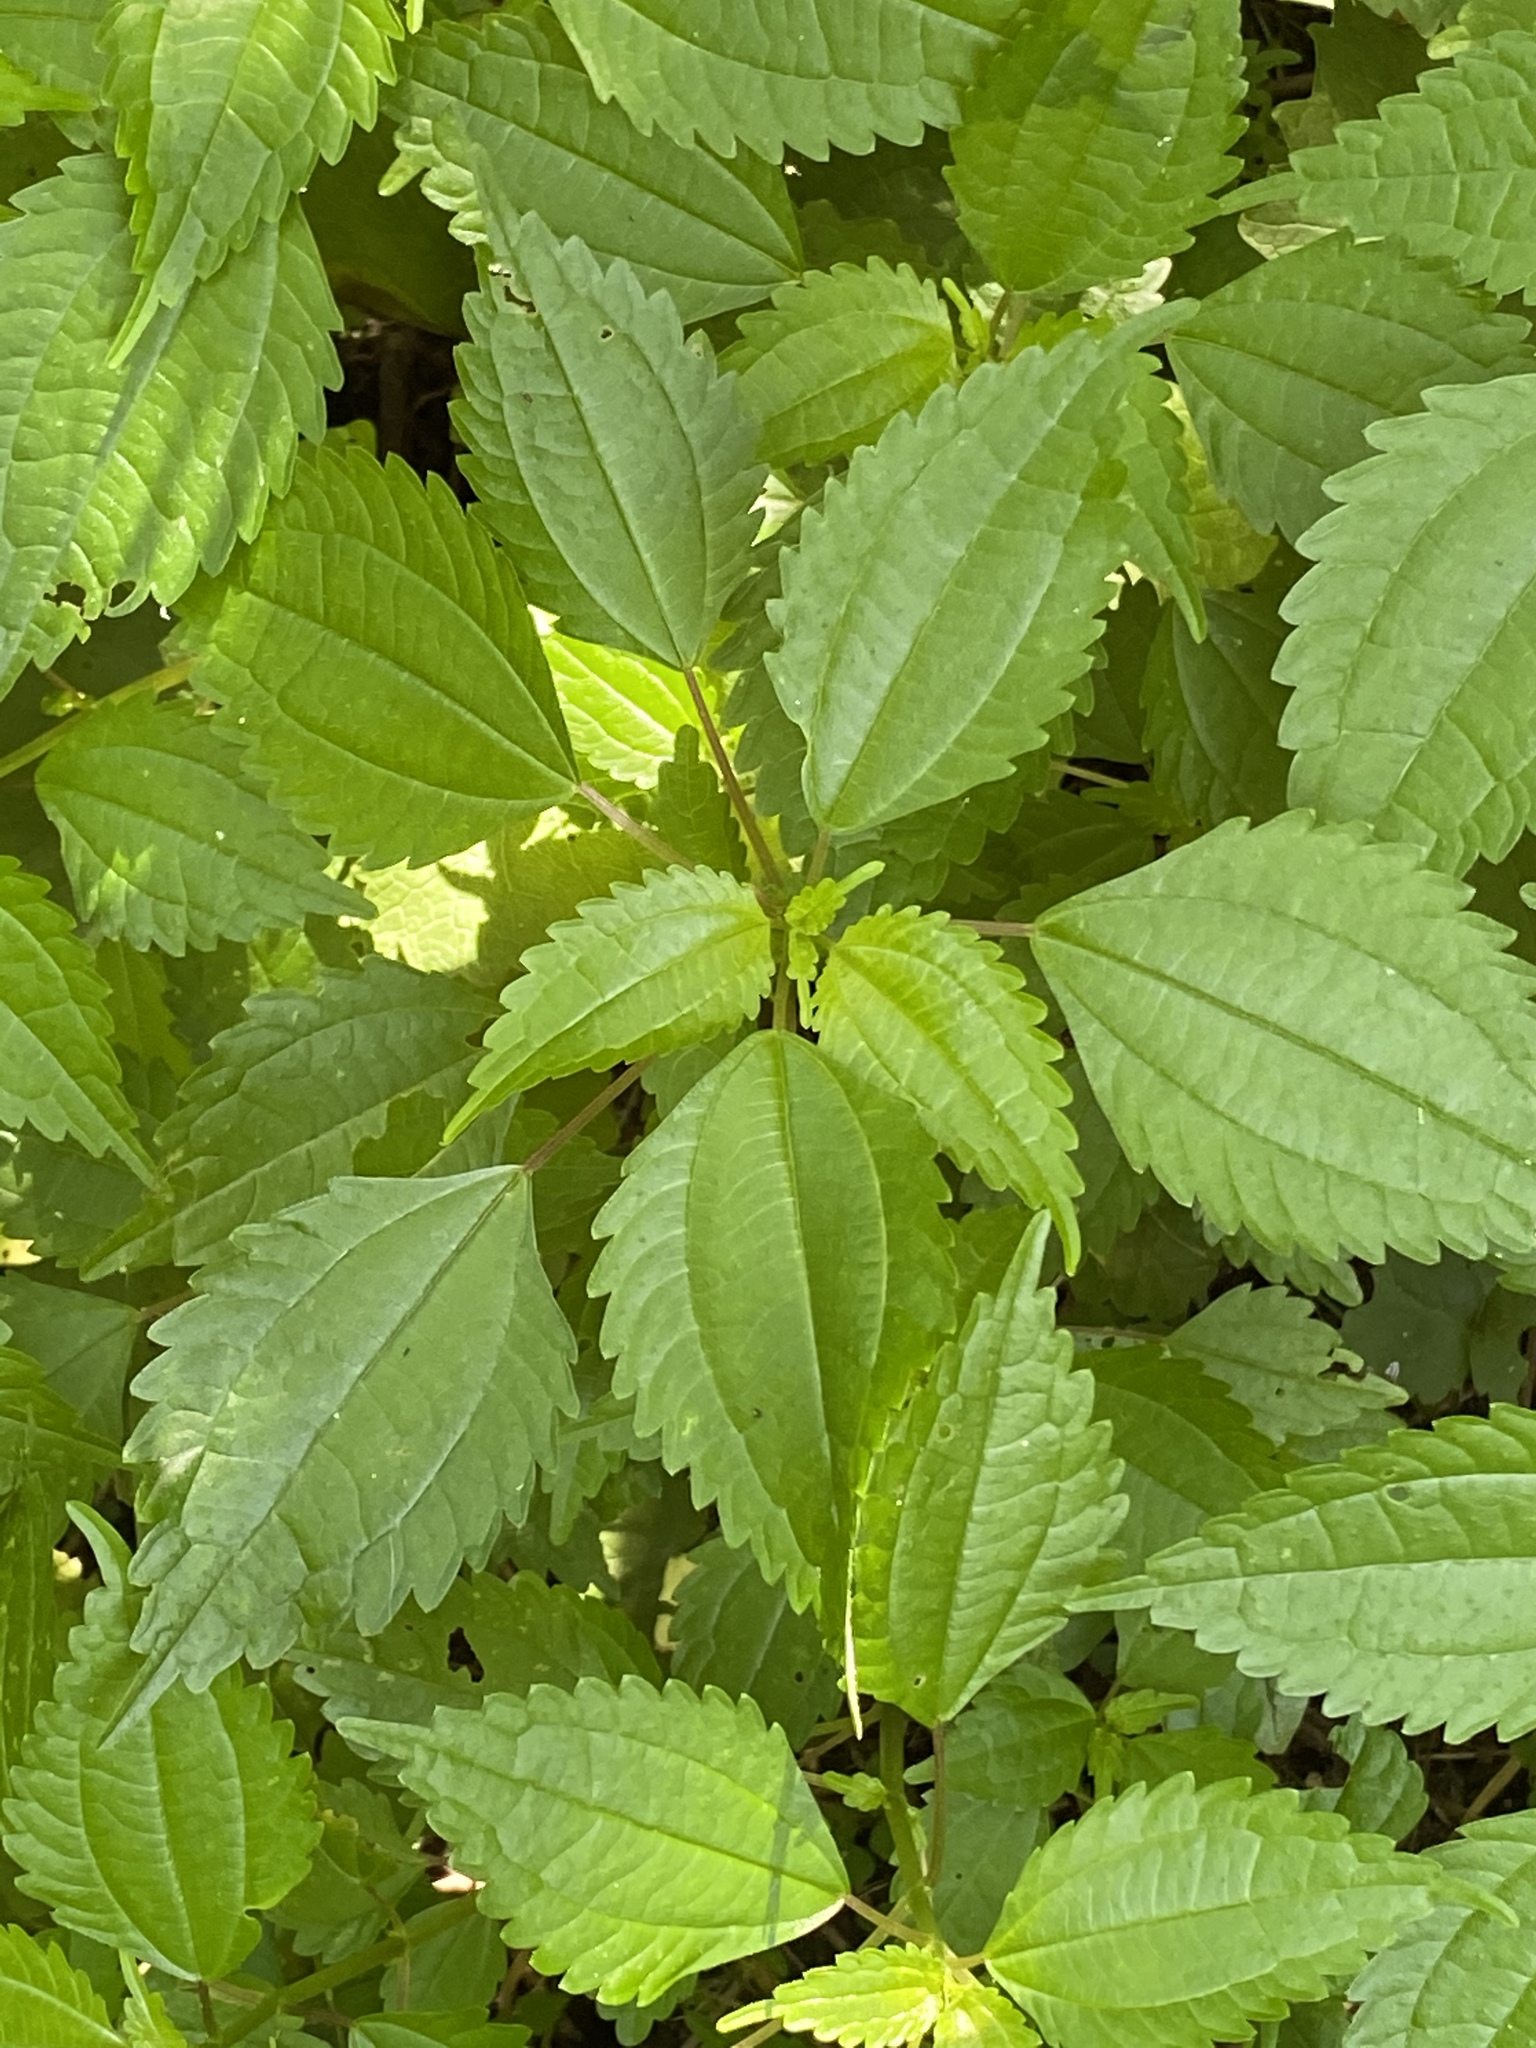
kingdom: Plantae
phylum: Tracheophyta
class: Magnoliopsida
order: Rosales
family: Urticaceae
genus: Pilea
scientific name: Pilea pumila
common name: Clearweed
